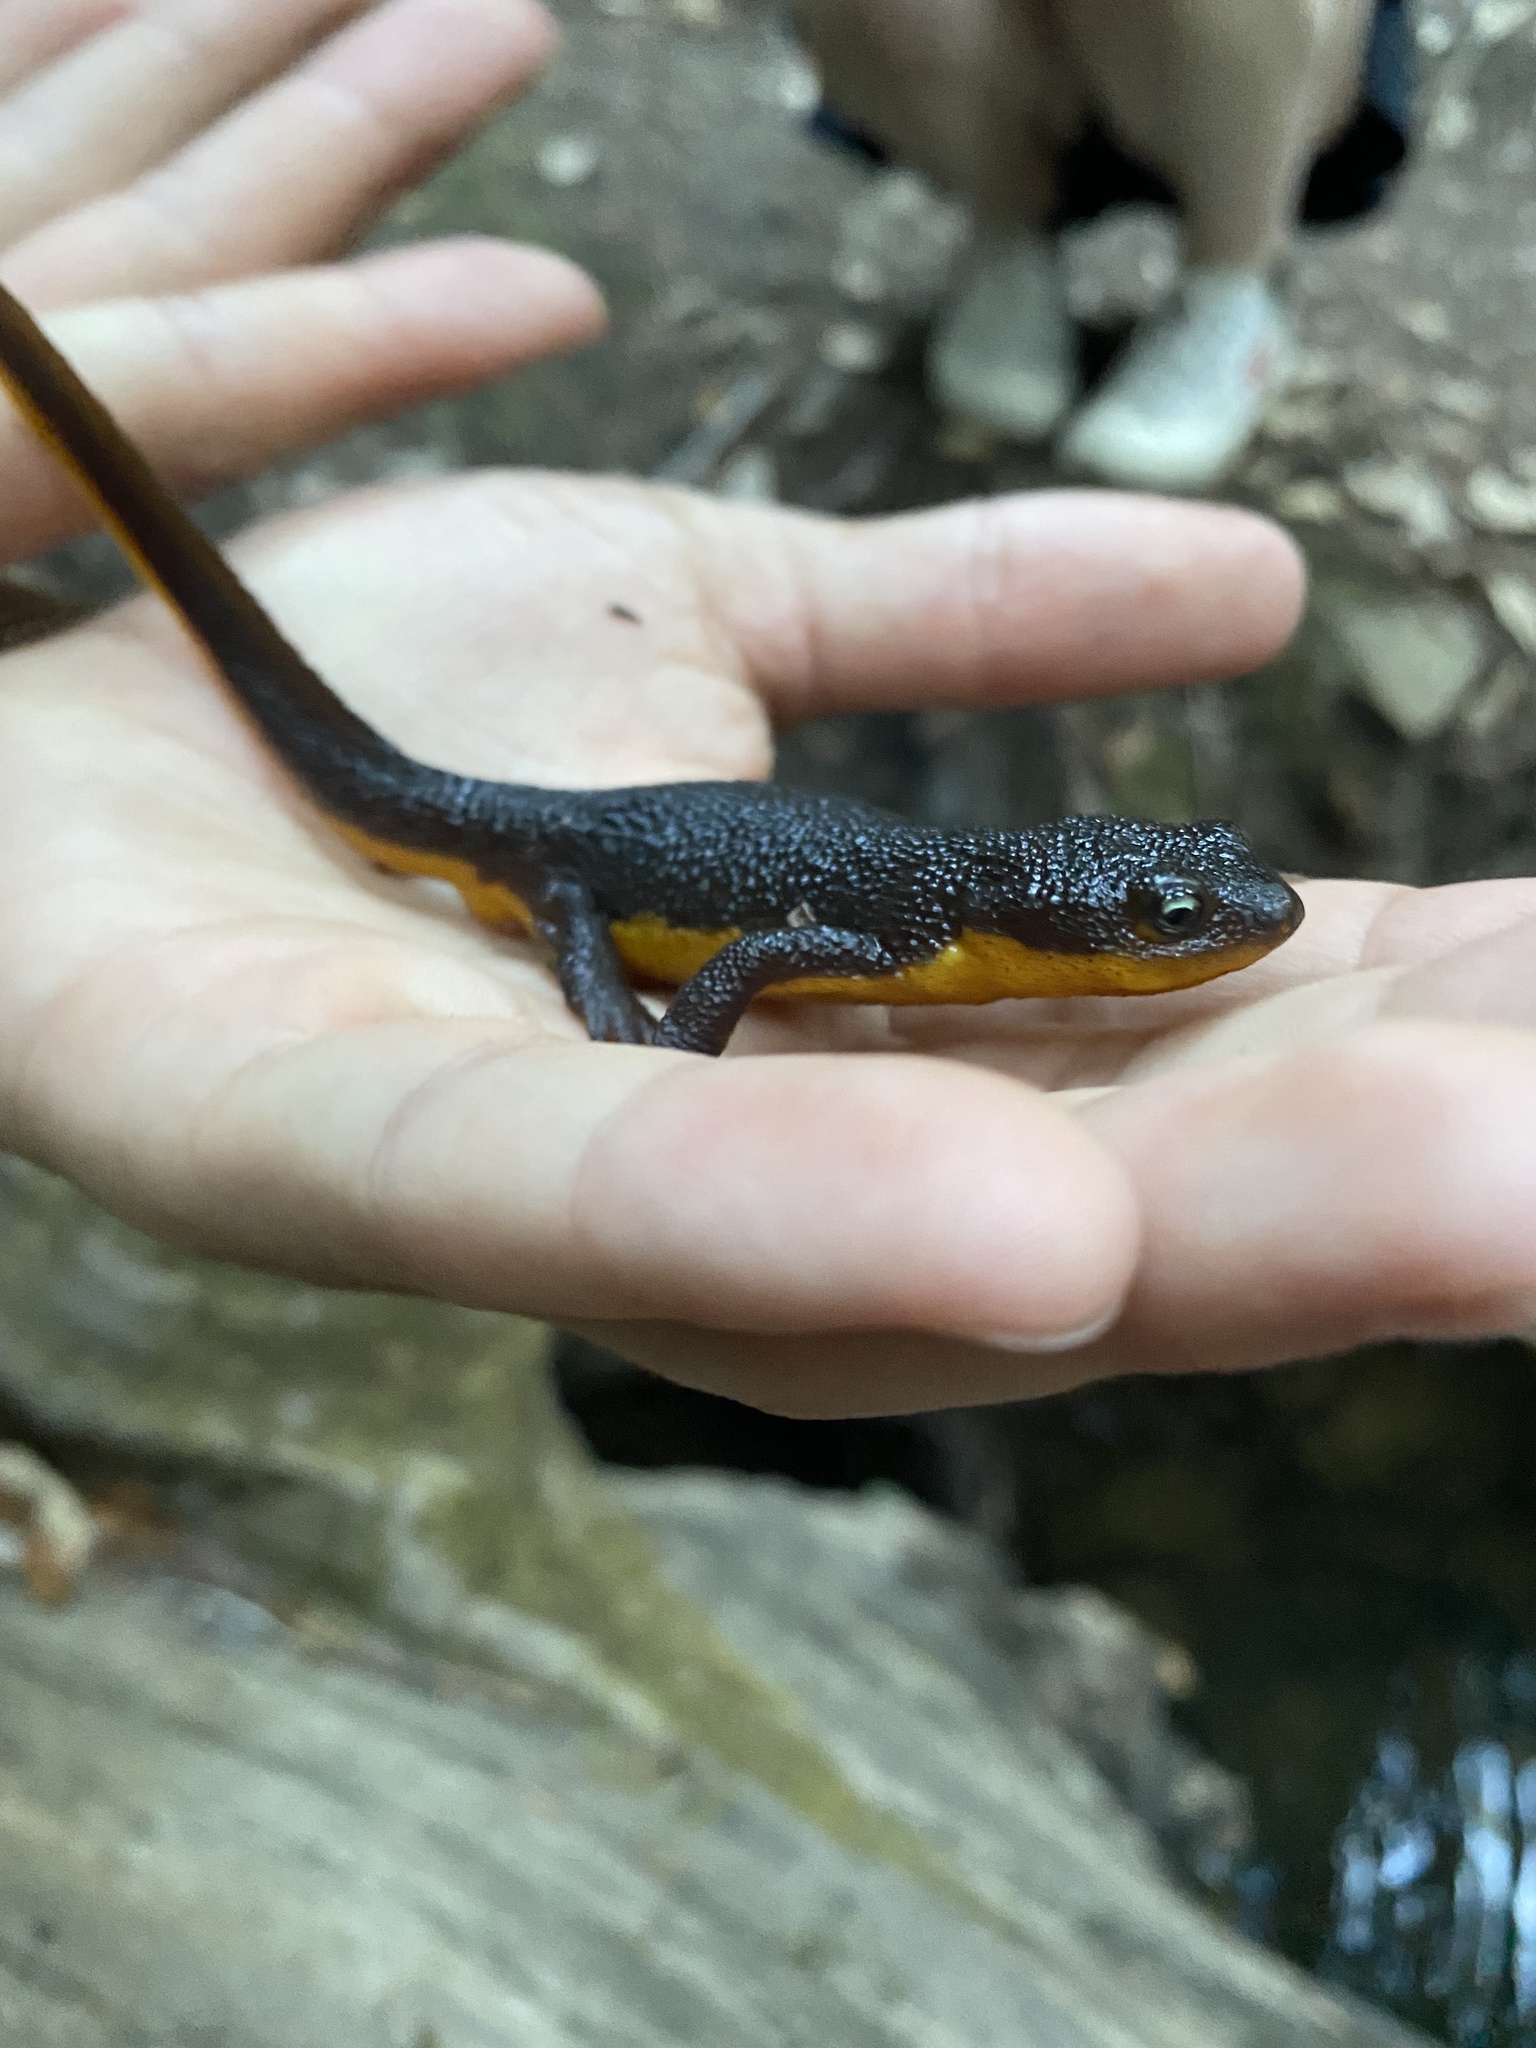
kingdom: Animalia
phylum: Chordata
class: Amphibia
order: Caudata
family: Salamandridae
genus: Taricha
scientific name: Taricha granulosa
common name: Roughskin newt
